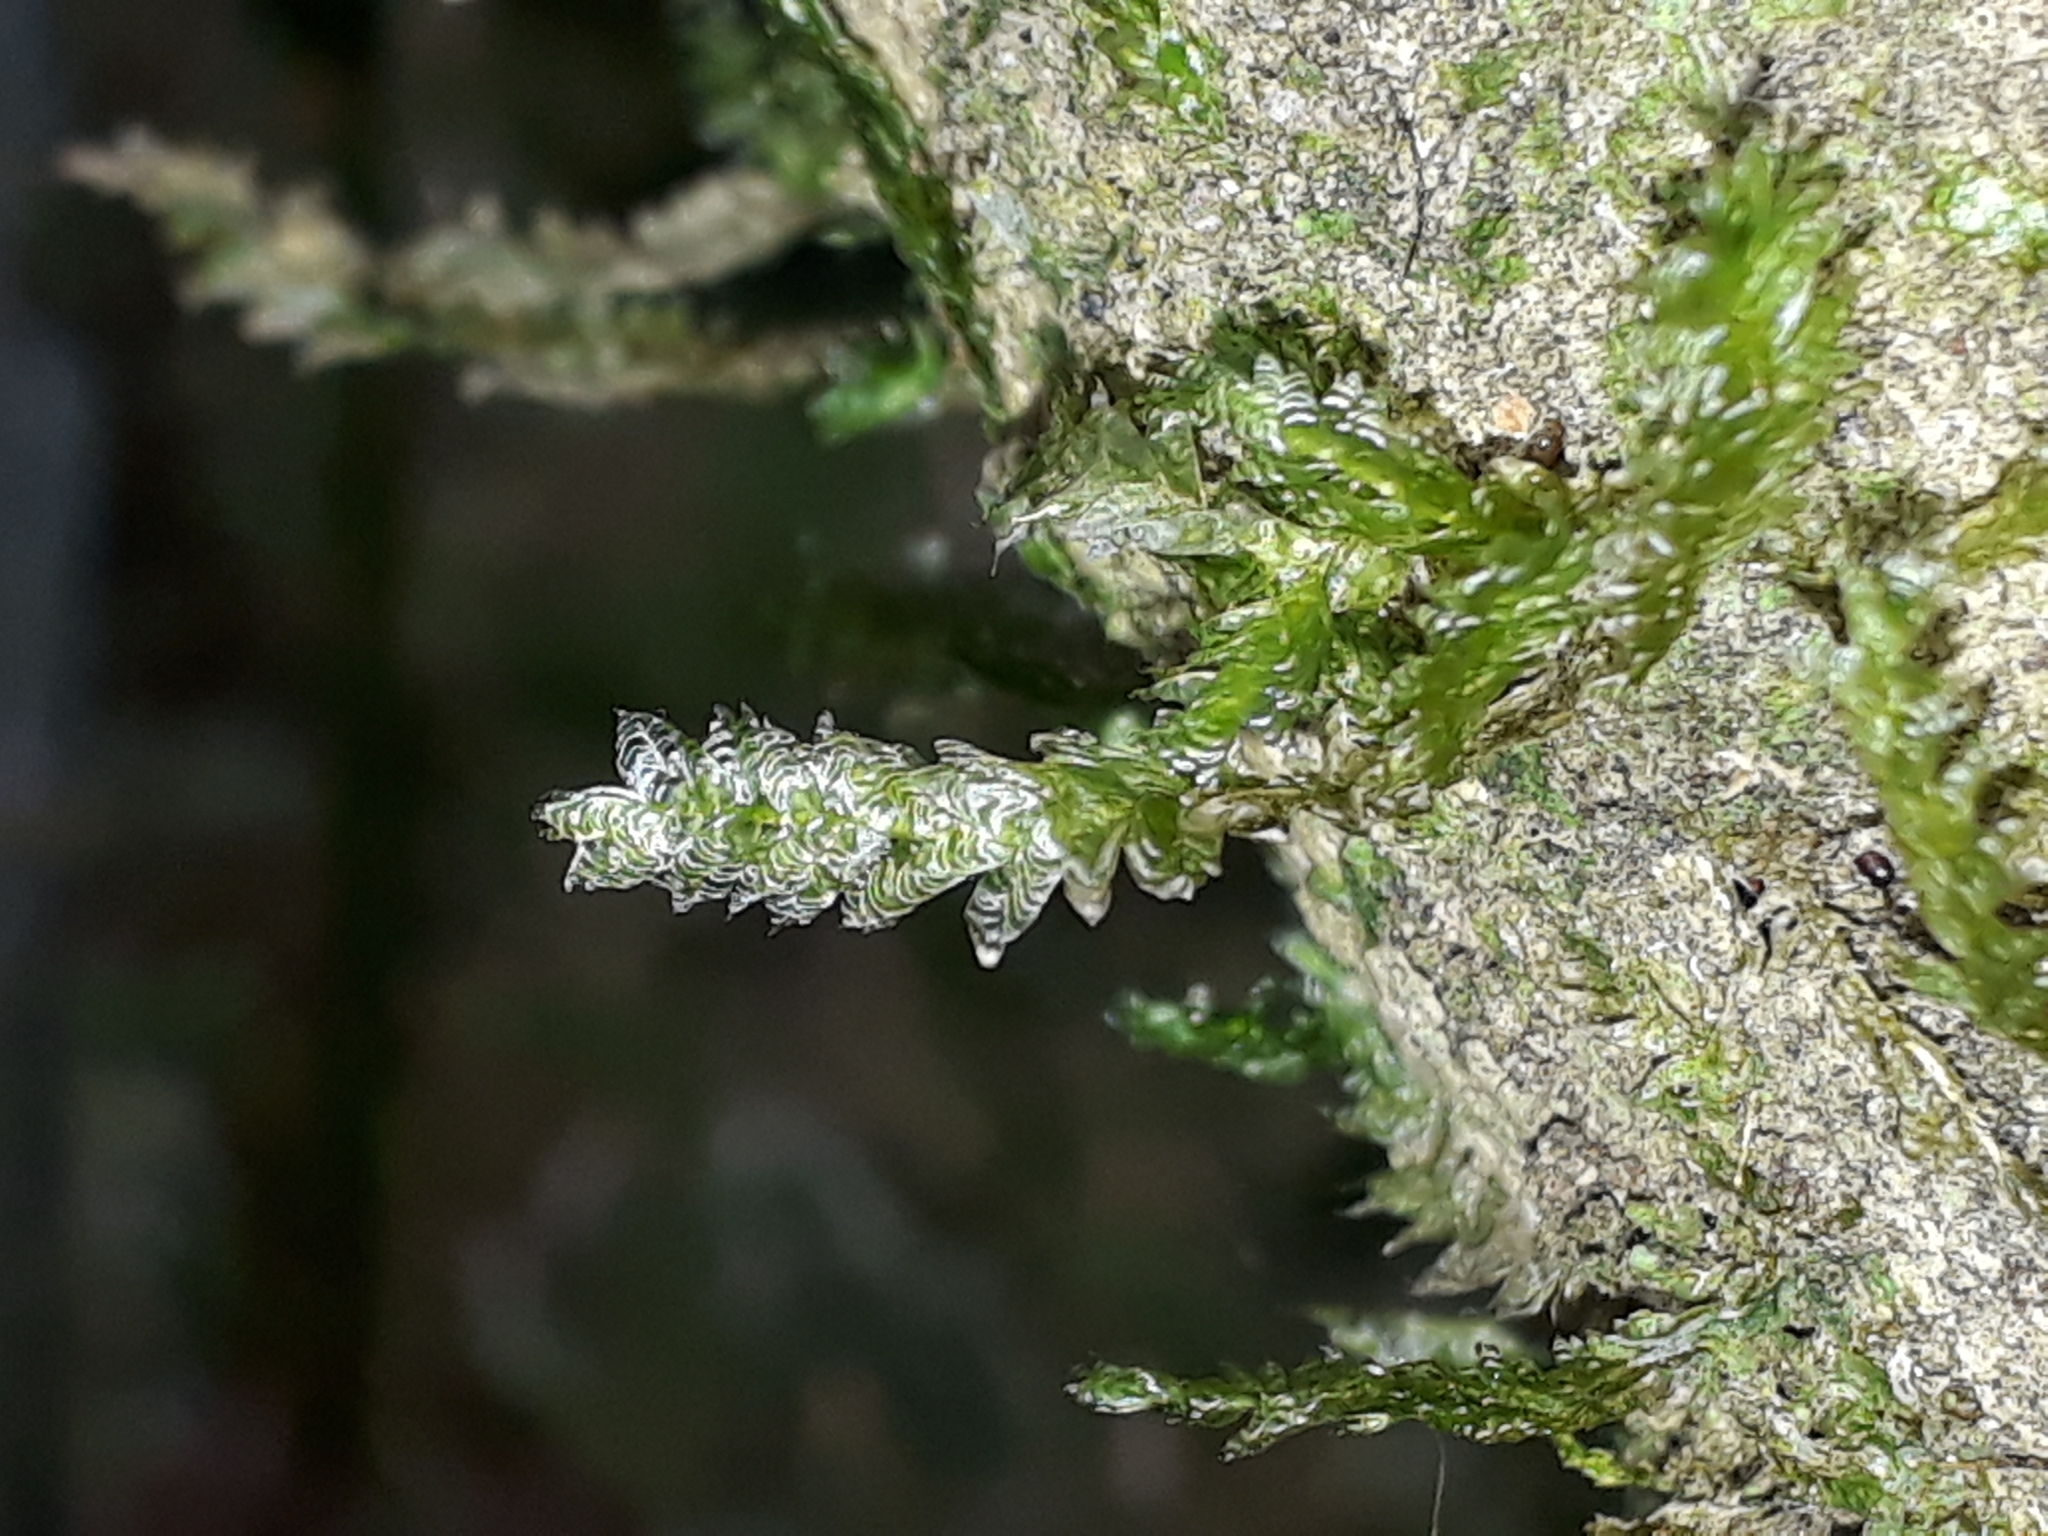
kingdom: Plantae
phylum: Bryophyta
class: Bryopsida
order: Hypnales
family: Neckeraceae
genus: Alleniella
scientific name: Alleniella hymenodonta
